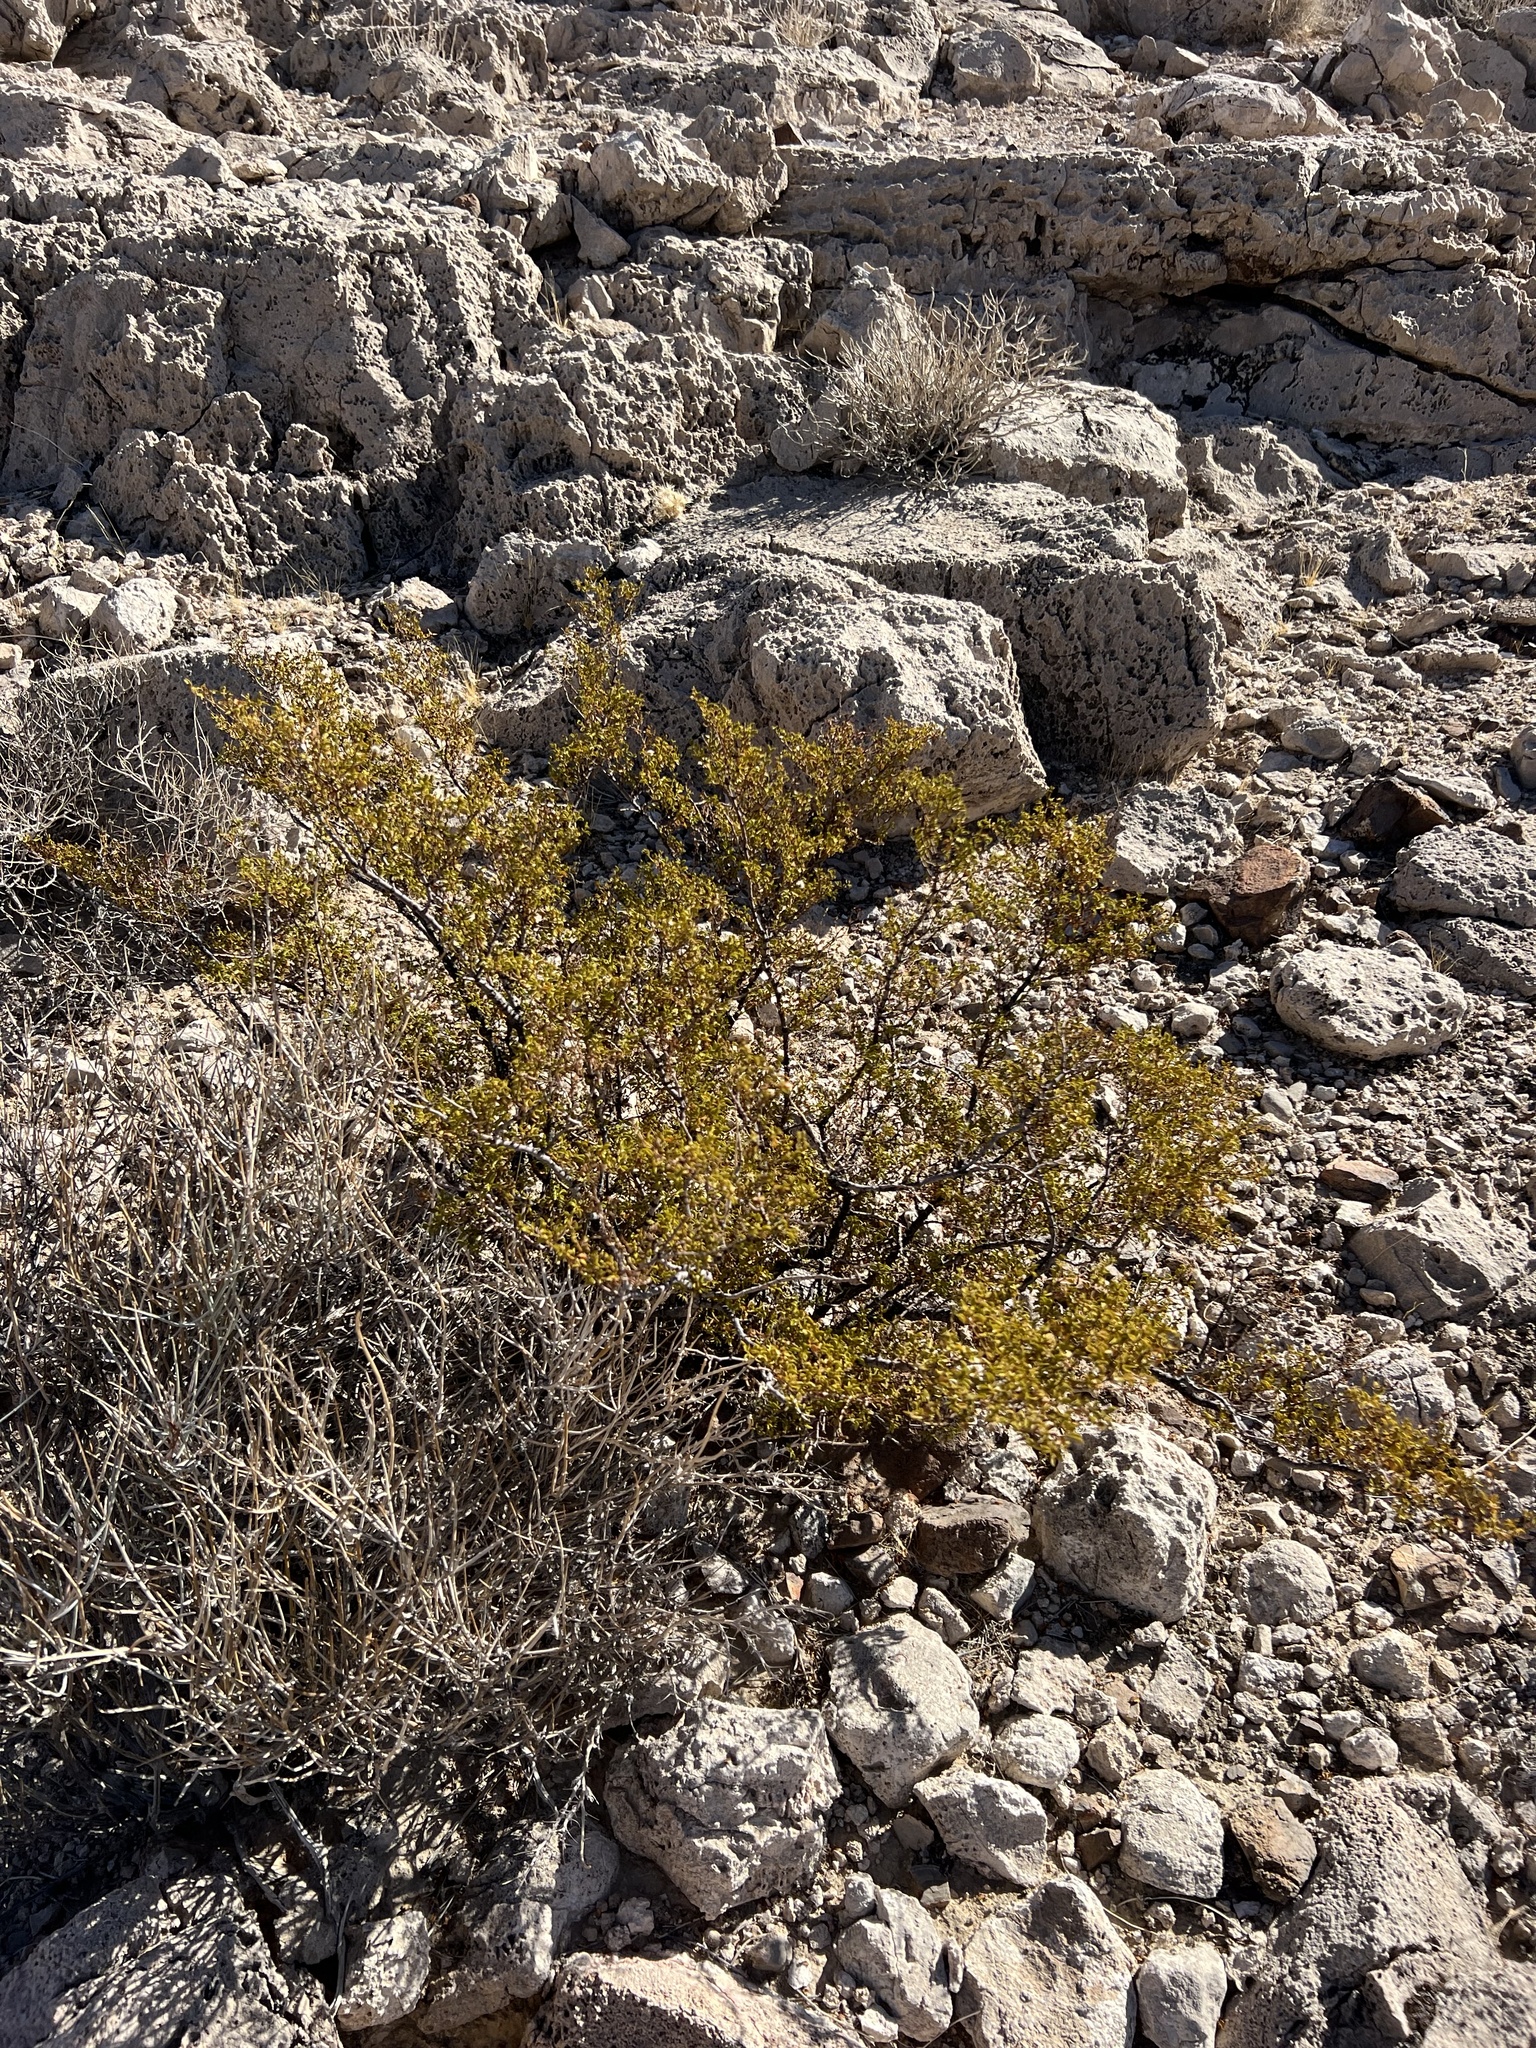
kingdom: Plantae
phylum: Tracheophyta
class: Magnoliopsida
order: Zygophyllales
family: Zygophyllaceae
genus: Larrea
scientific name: Larrea tridentata
